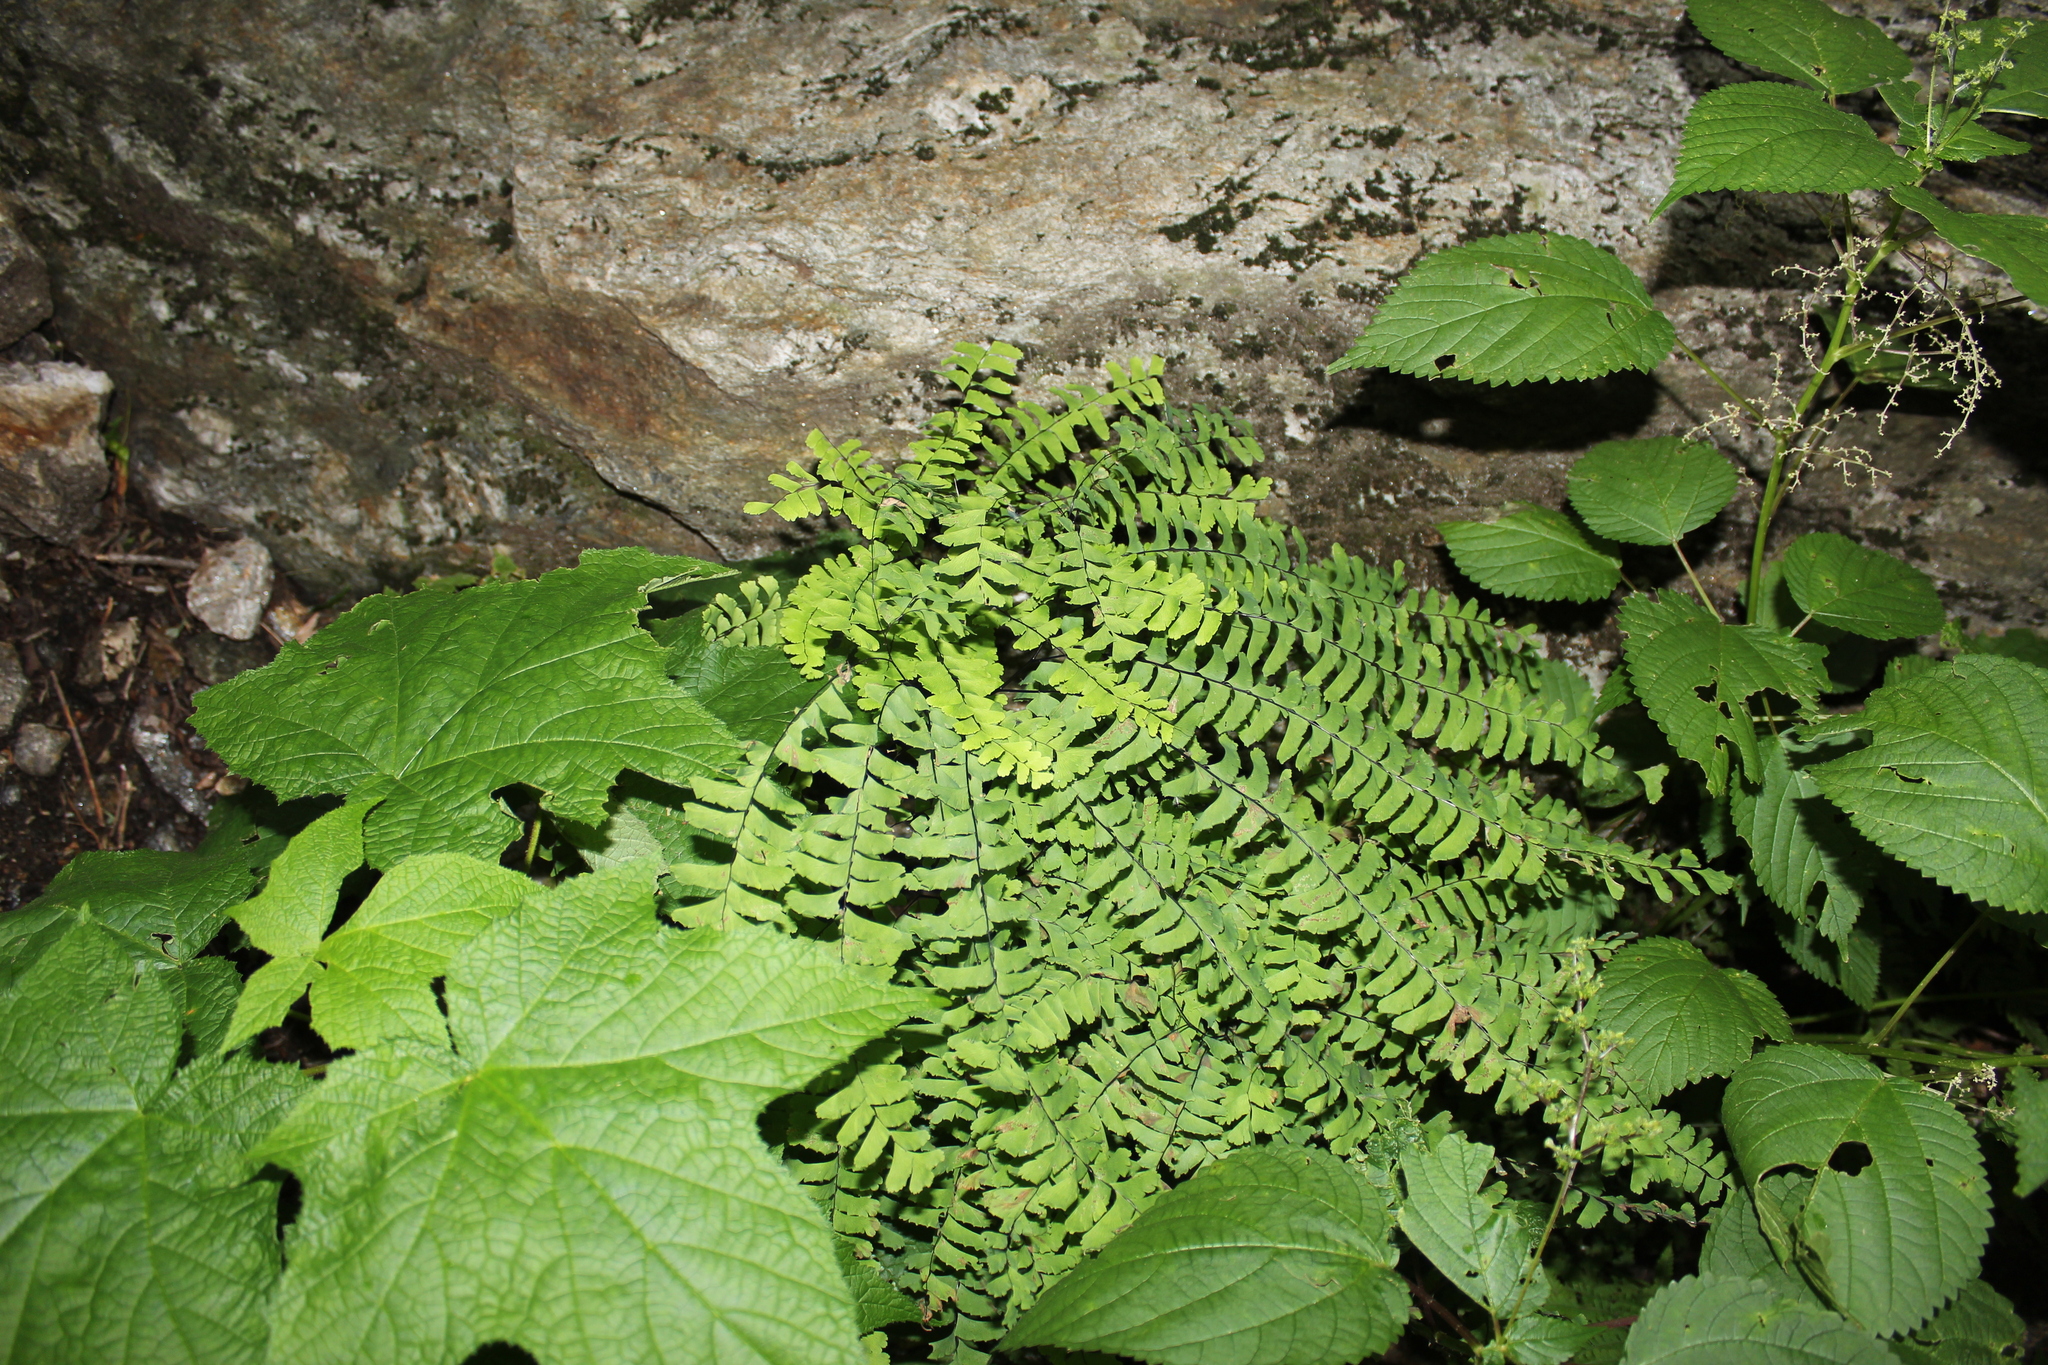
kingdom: Plantae
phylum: Tracheophyta
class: Polypodiopsida
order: Polypodiales
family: Pteridaceae
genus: Adiantum
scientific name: Adiantum pedatum
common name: Five-finger fern
